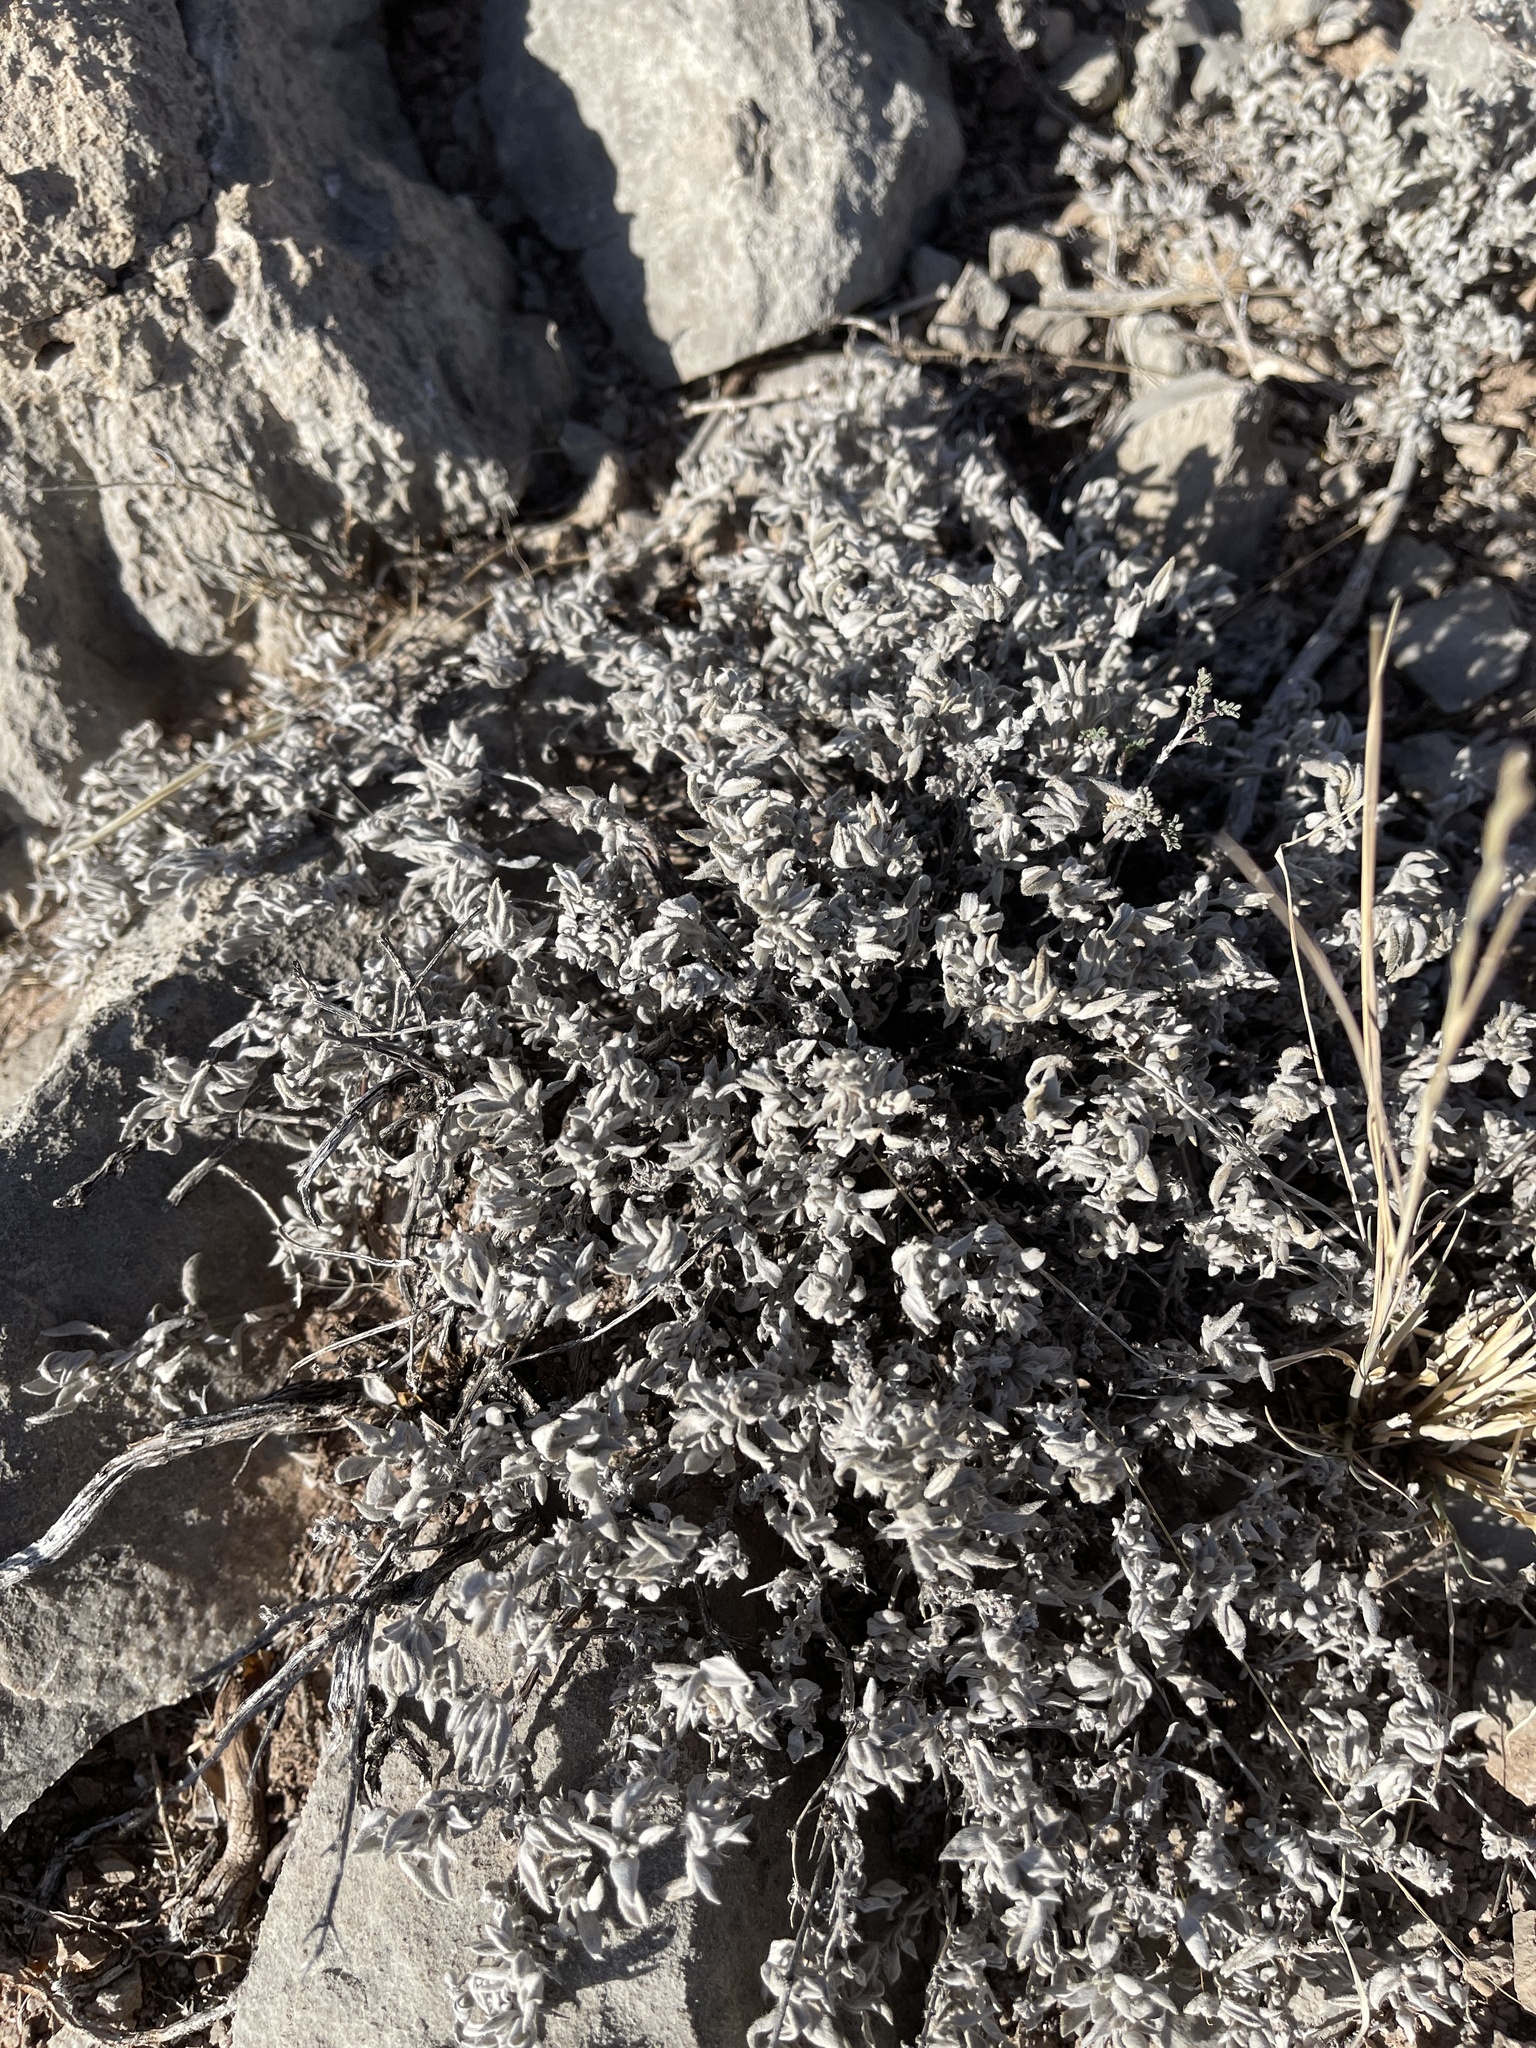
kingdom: Plantae
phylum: Tracheophyta
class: Magnoliopsida
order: Boraginales
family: Ehretiaceae
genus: Tiquilia
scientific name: Tiquilia canescens
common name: Hairy tiquilia
